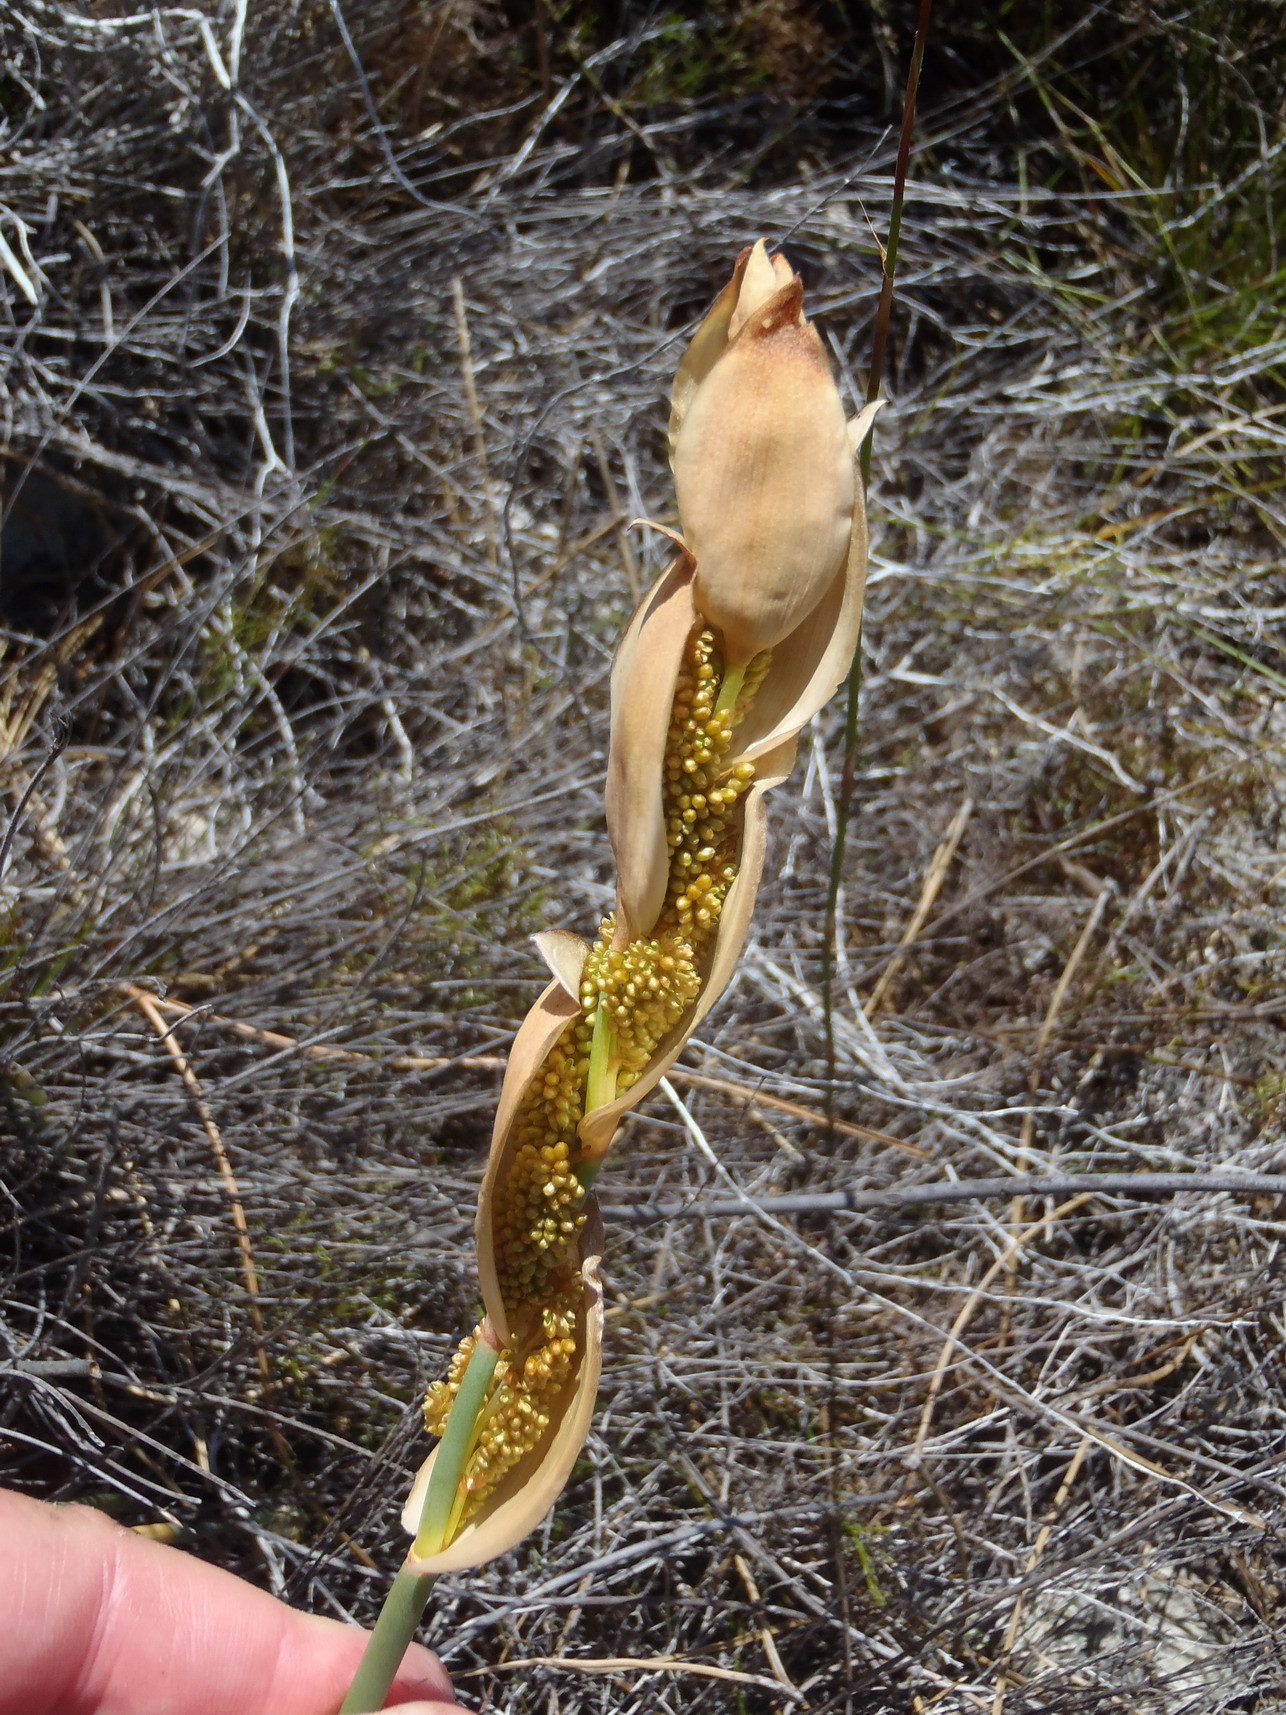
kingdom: Plantae
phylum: Tracheophyta
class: Liliopsida
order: Poales
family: Restionaceae
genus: Elegia
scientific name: Elegia persistens
